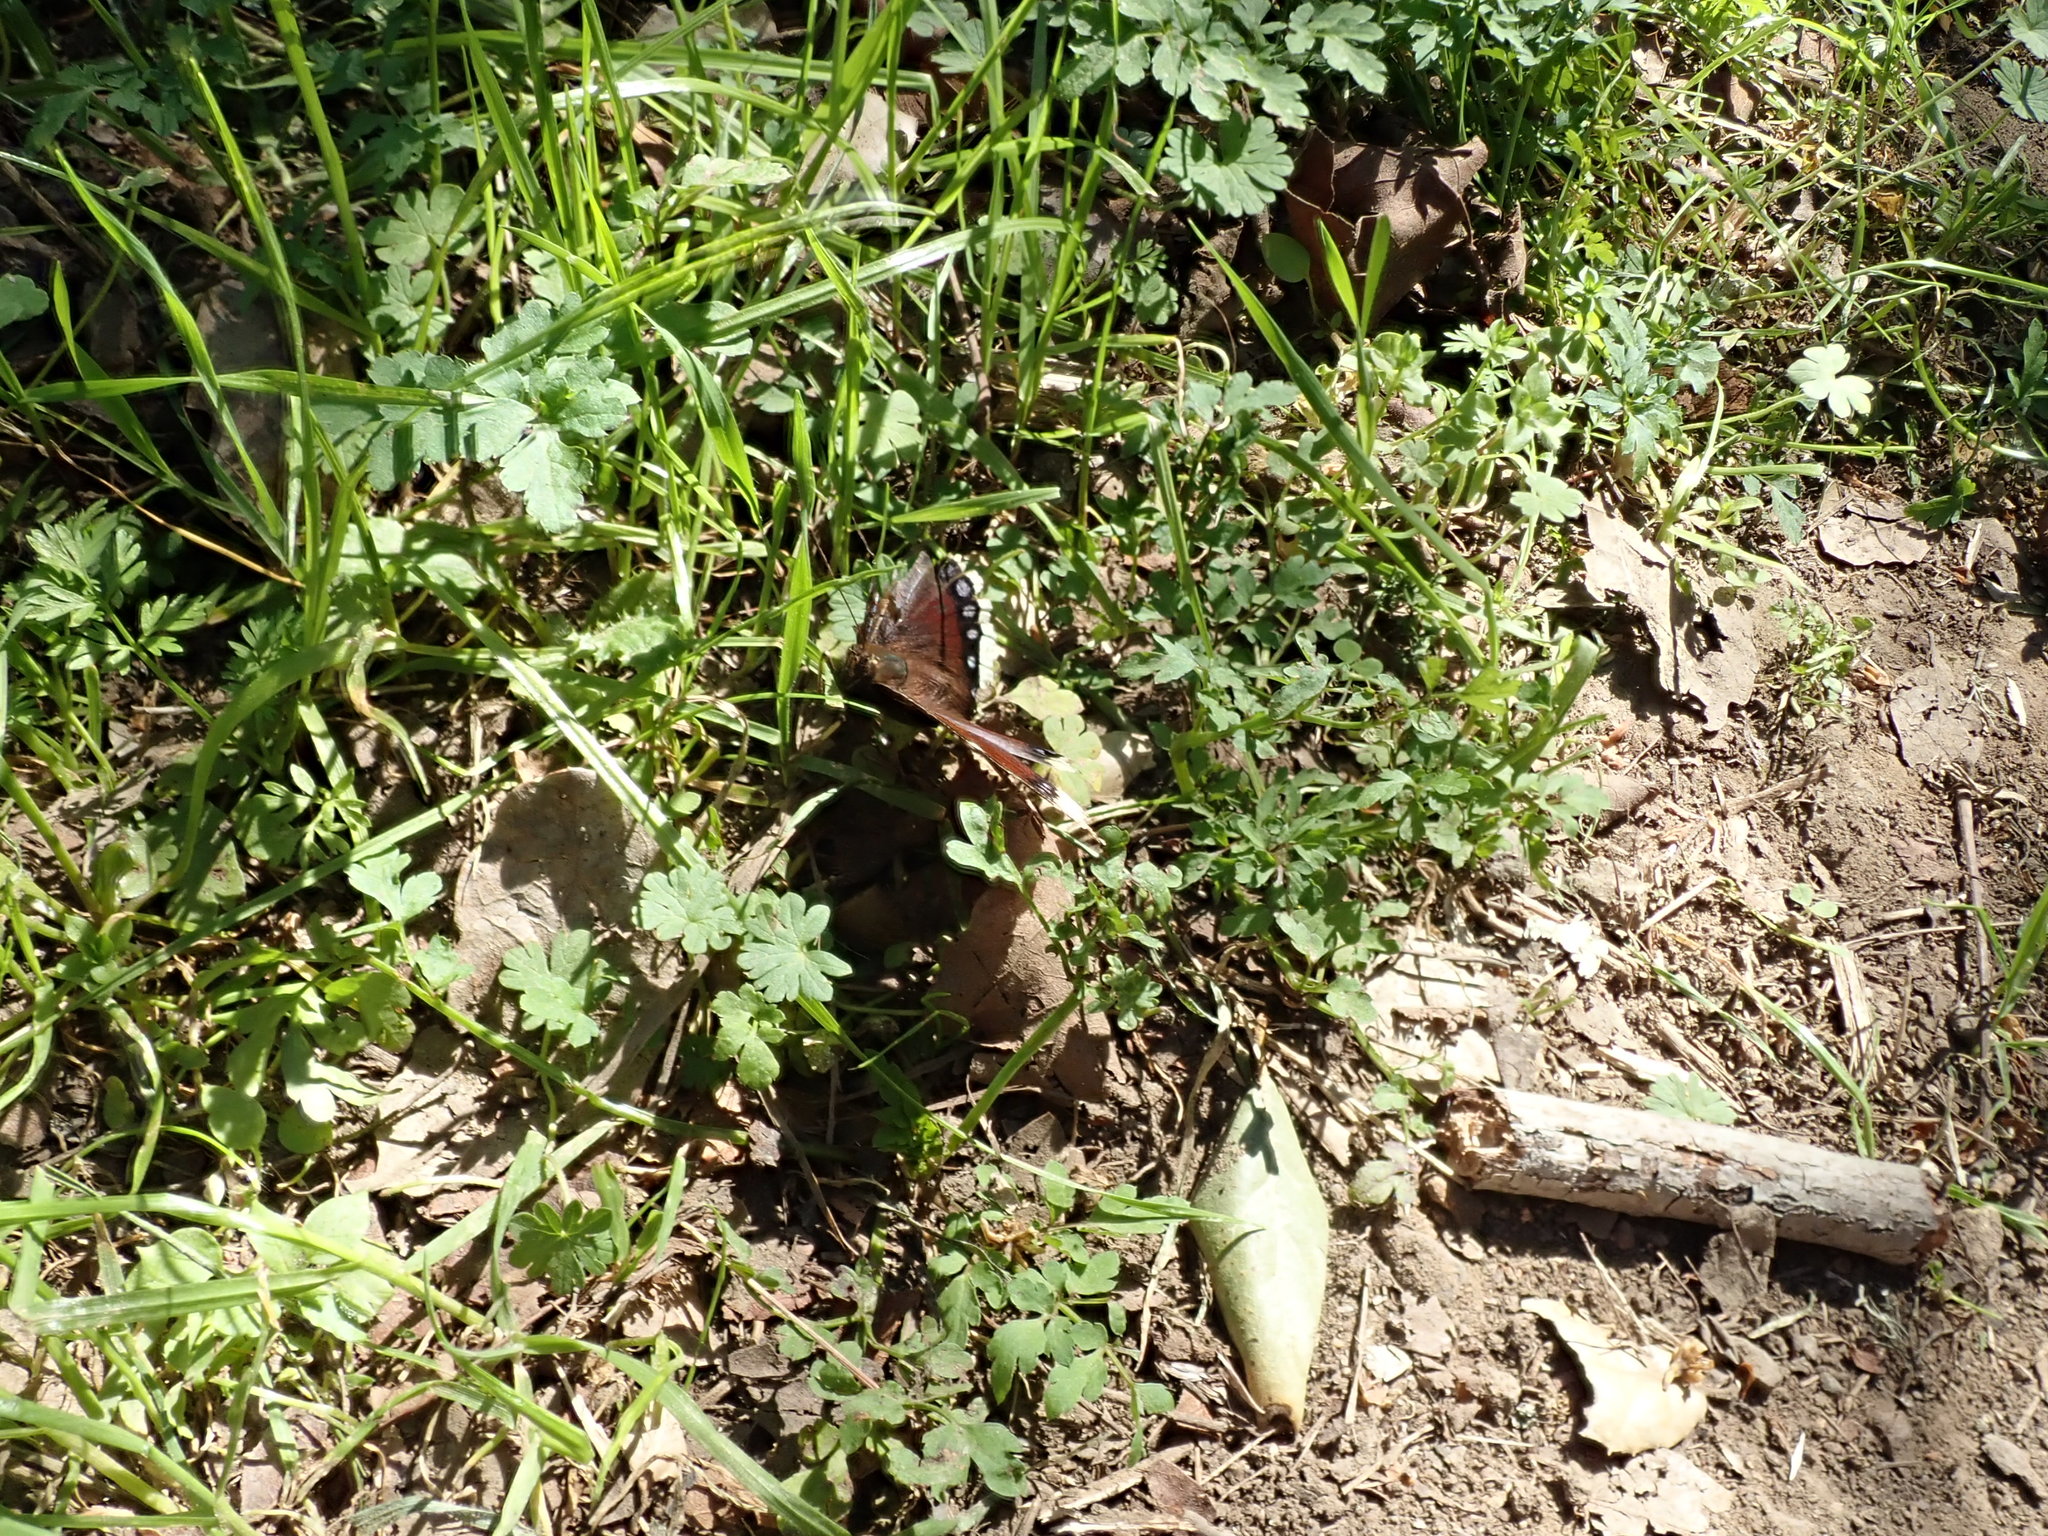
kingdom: Animalia
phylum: Arthropoda
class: Insecta
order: Lepidoptera
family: Nymphalidae
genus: Nymphalis
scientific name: Nymphalis antiopa
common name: Camberwell beauty
